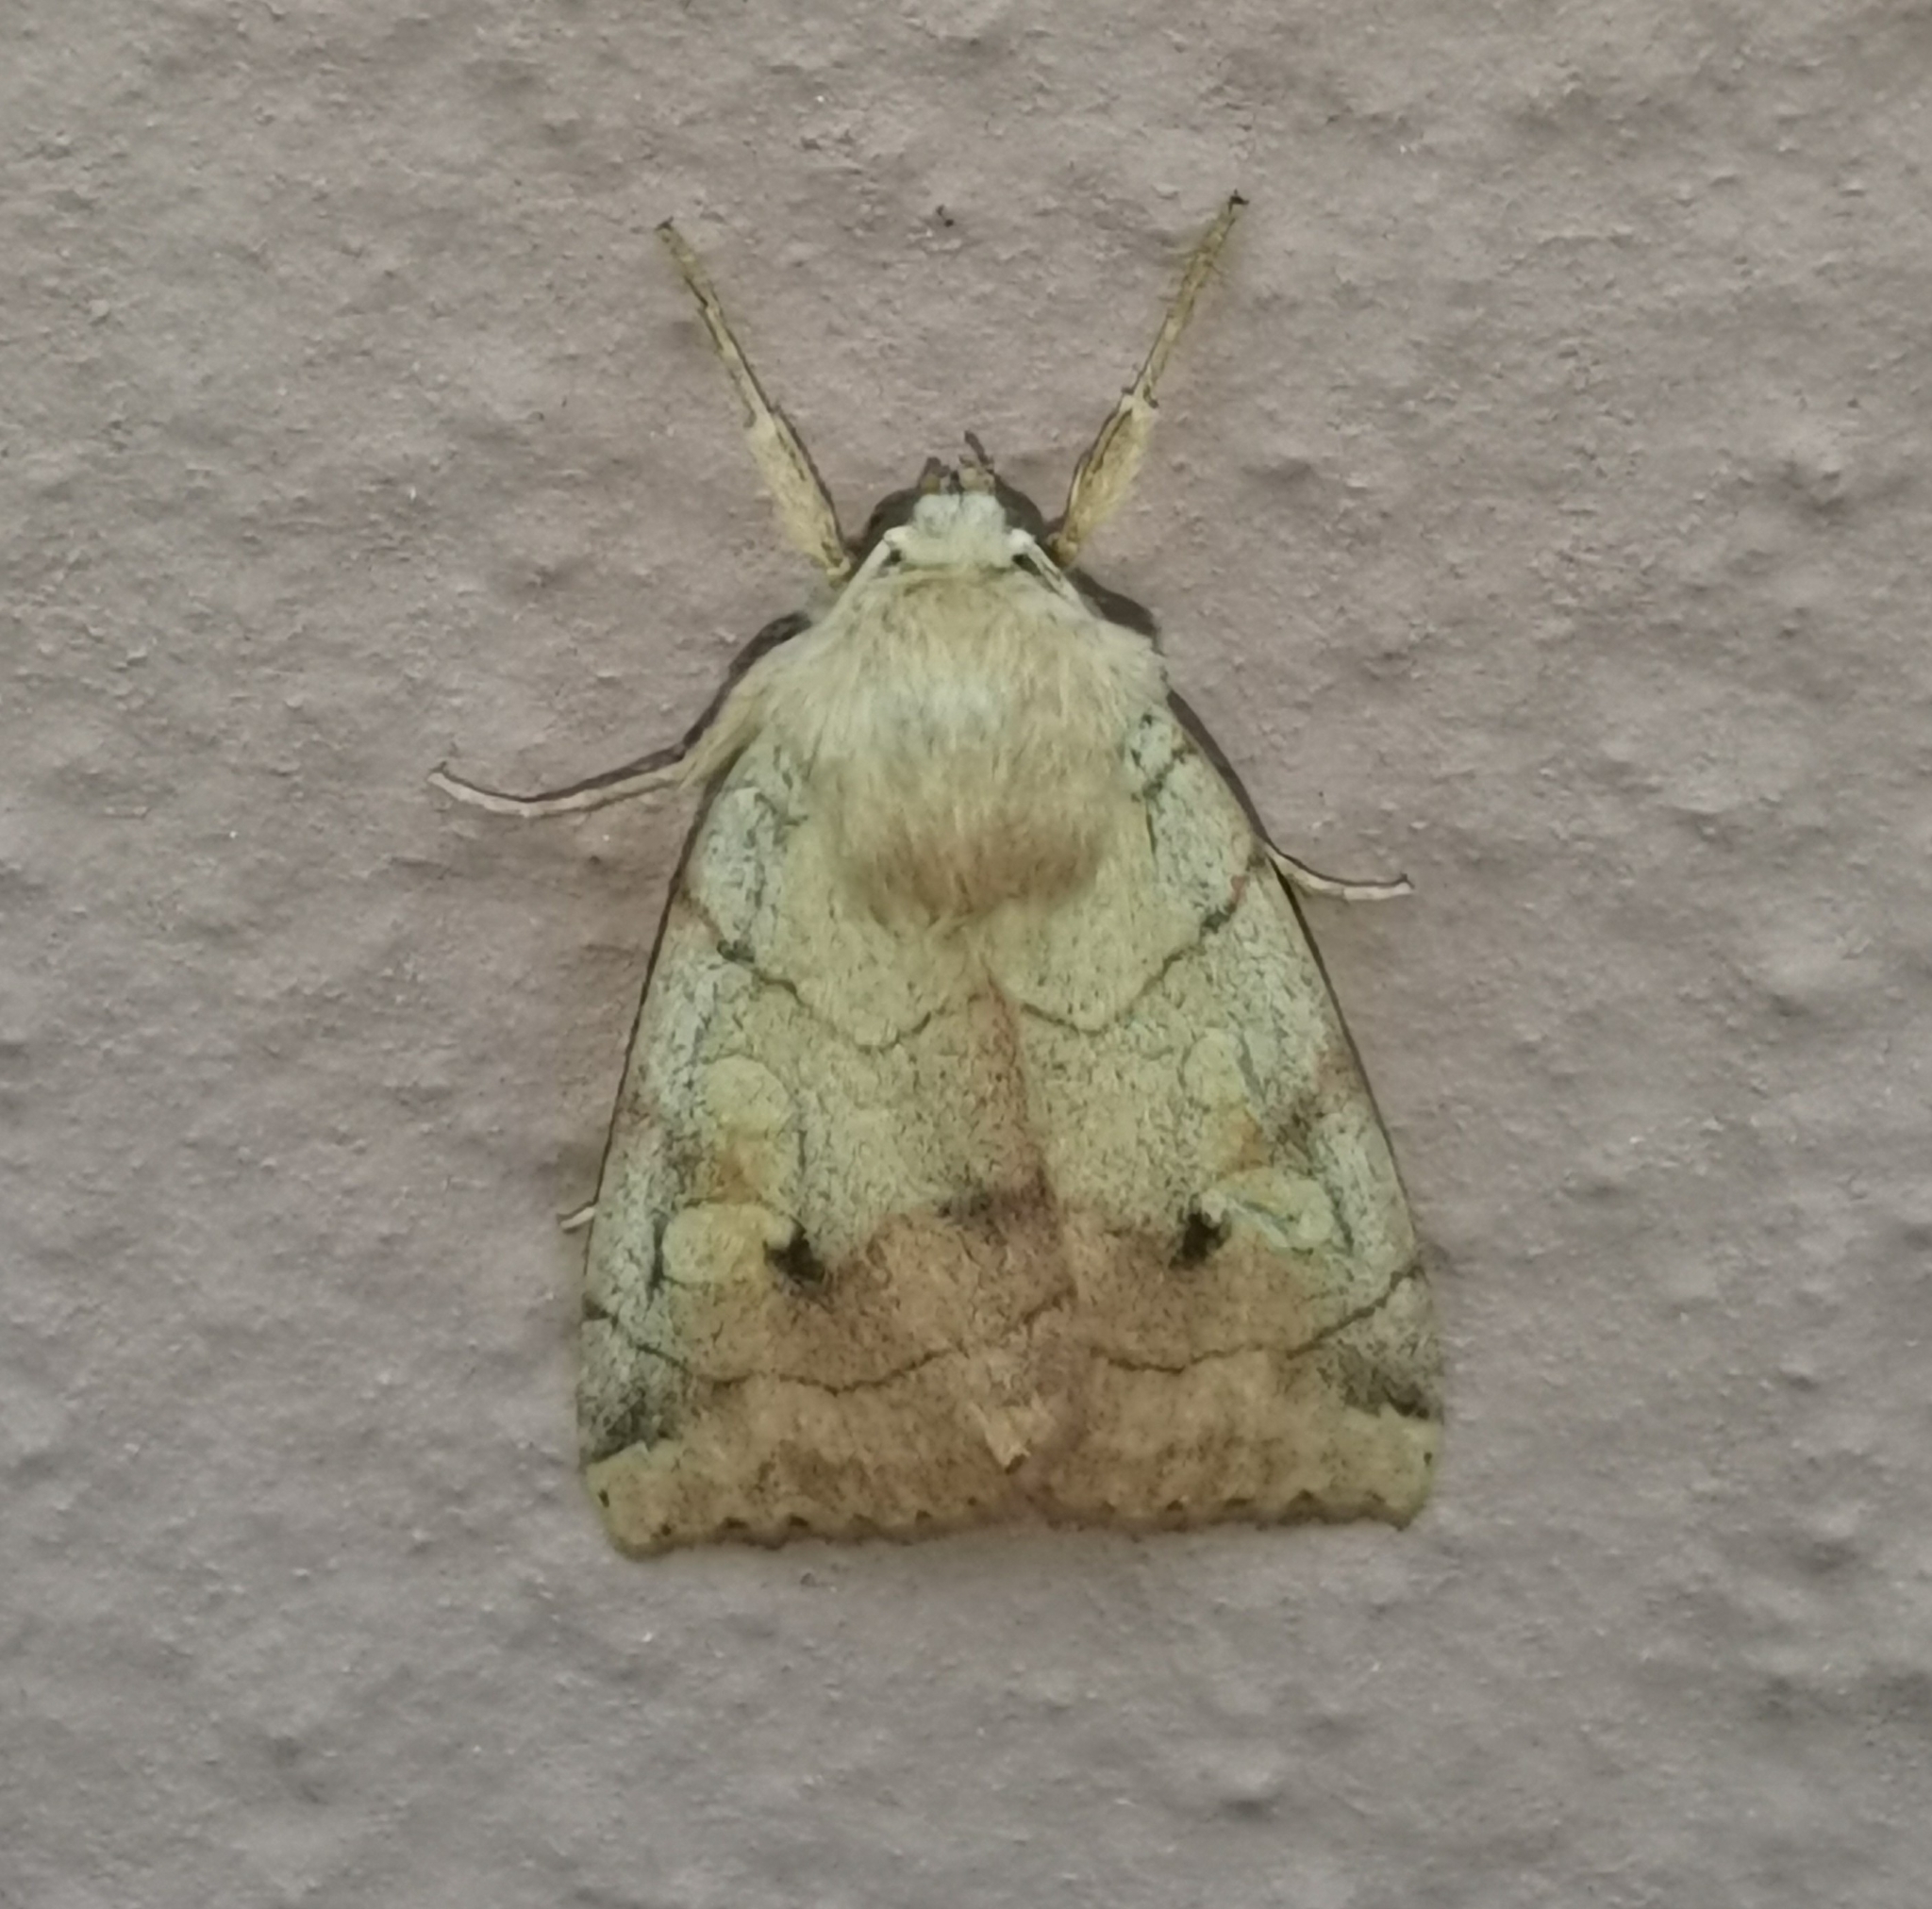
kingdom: Animalia
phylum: Arthropoda
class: Insecta
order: Lepidoptera
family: Noctuidae
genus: Enargia
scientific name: Enargia paleacea
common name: Angle-striped sallow
